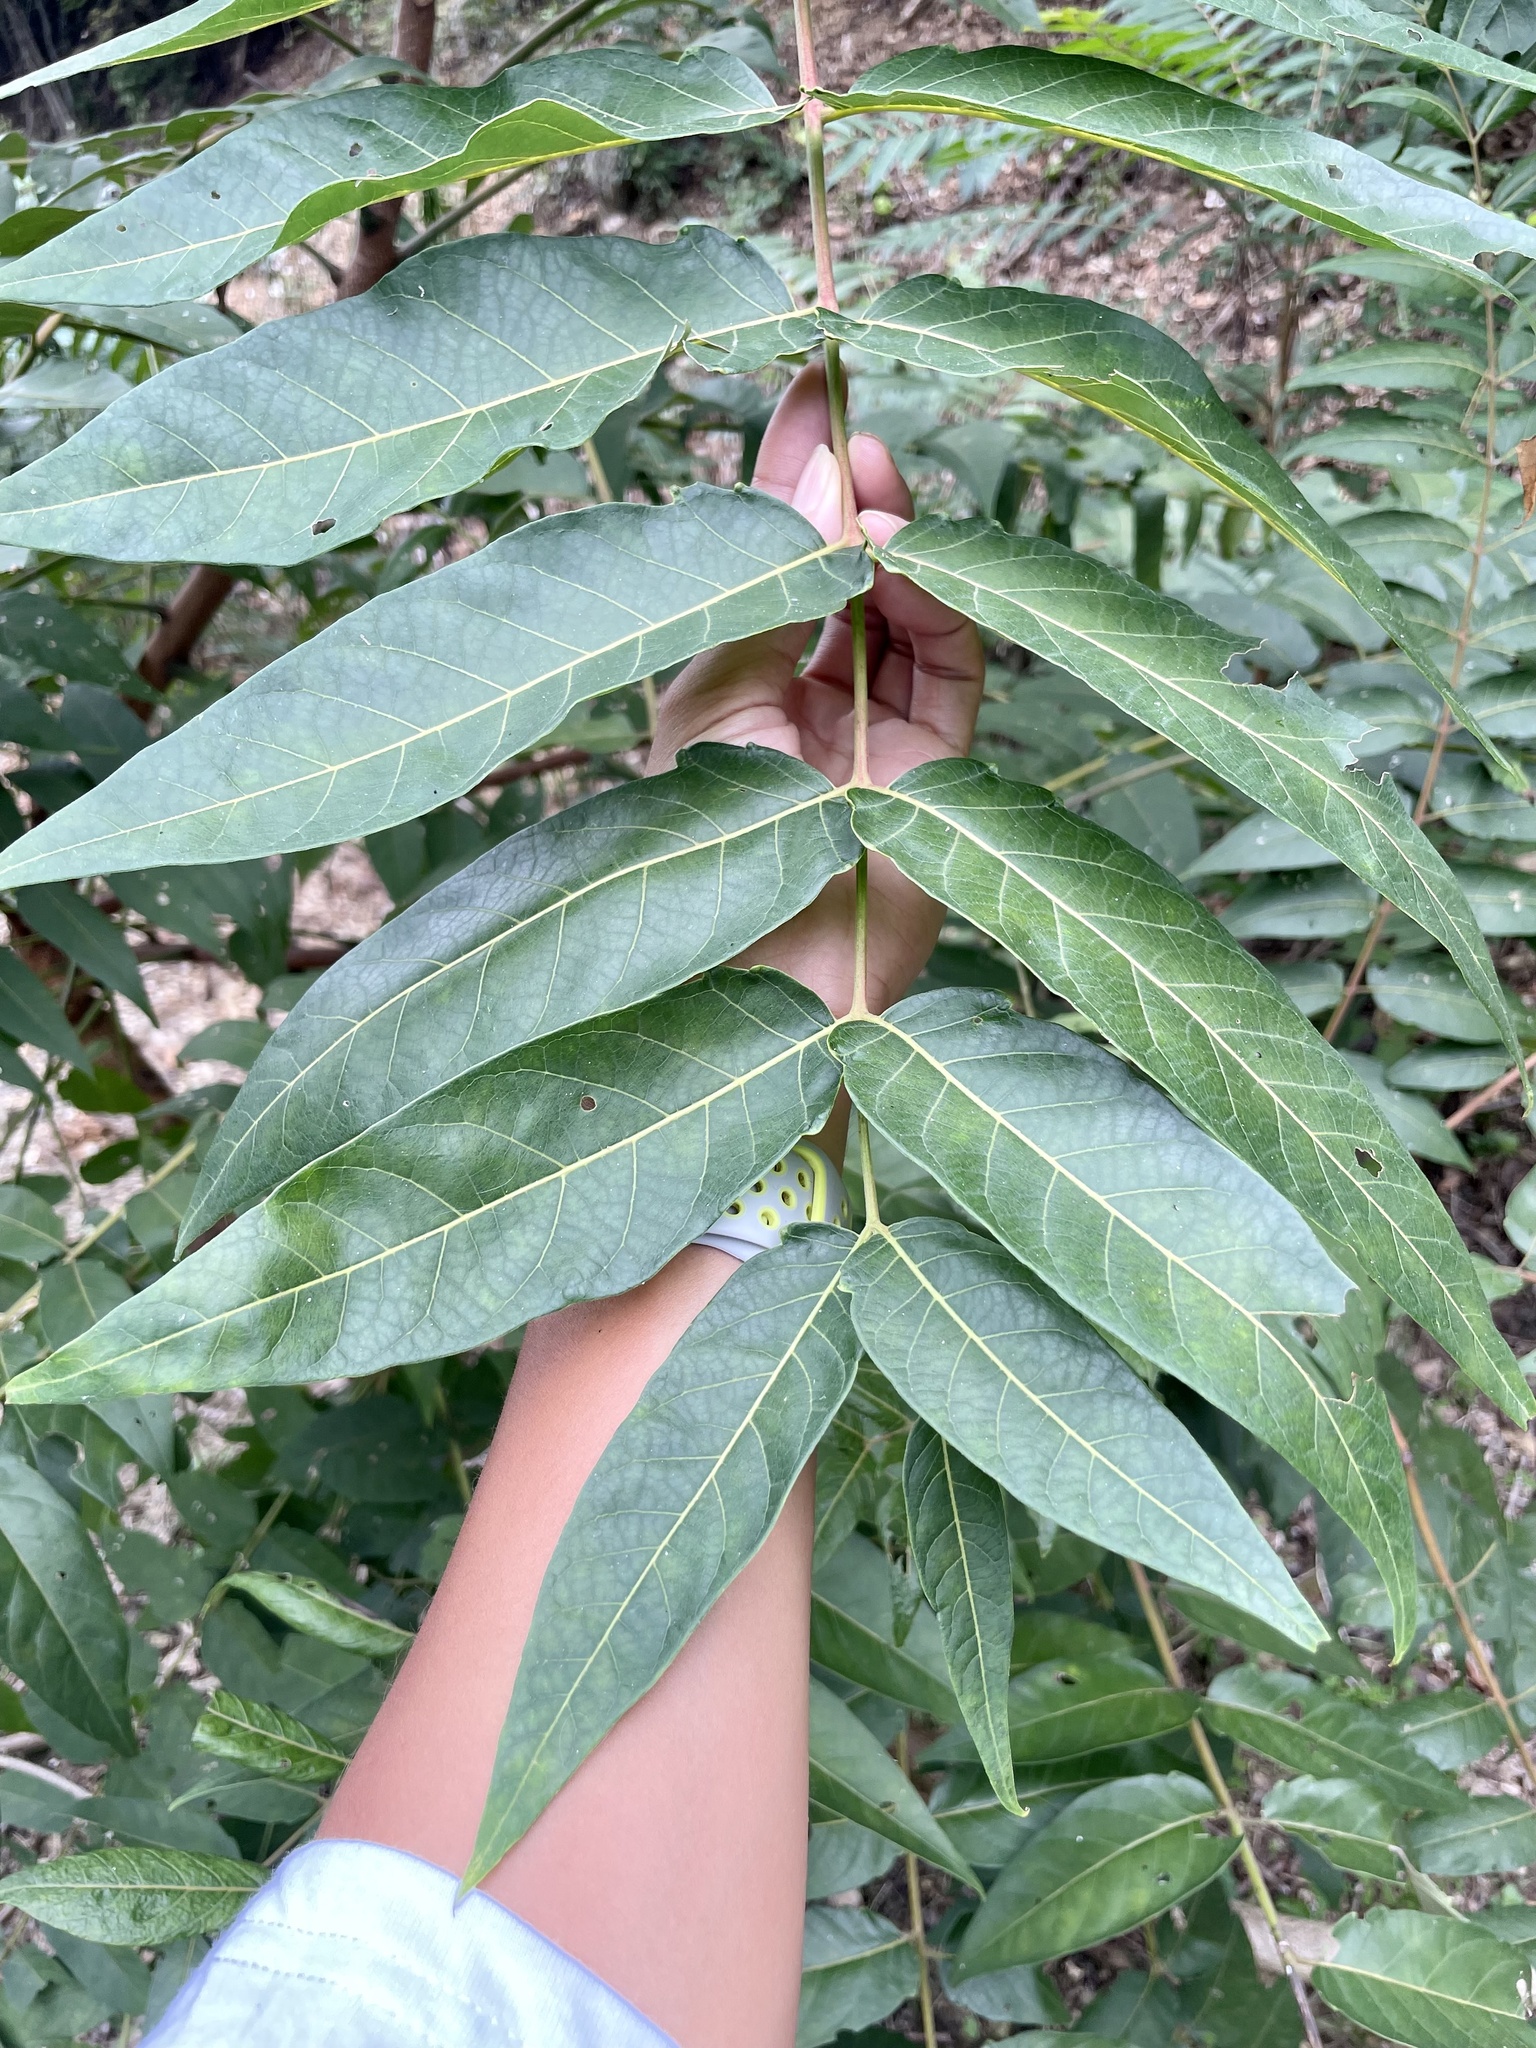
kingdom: Plantae
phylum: Tracheophyta
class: Magnoliopsida
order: Sapindales
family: Simaroubaceae
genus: Ailanthus
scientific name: Ailanthus altissima
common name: Tree-of-heaven
